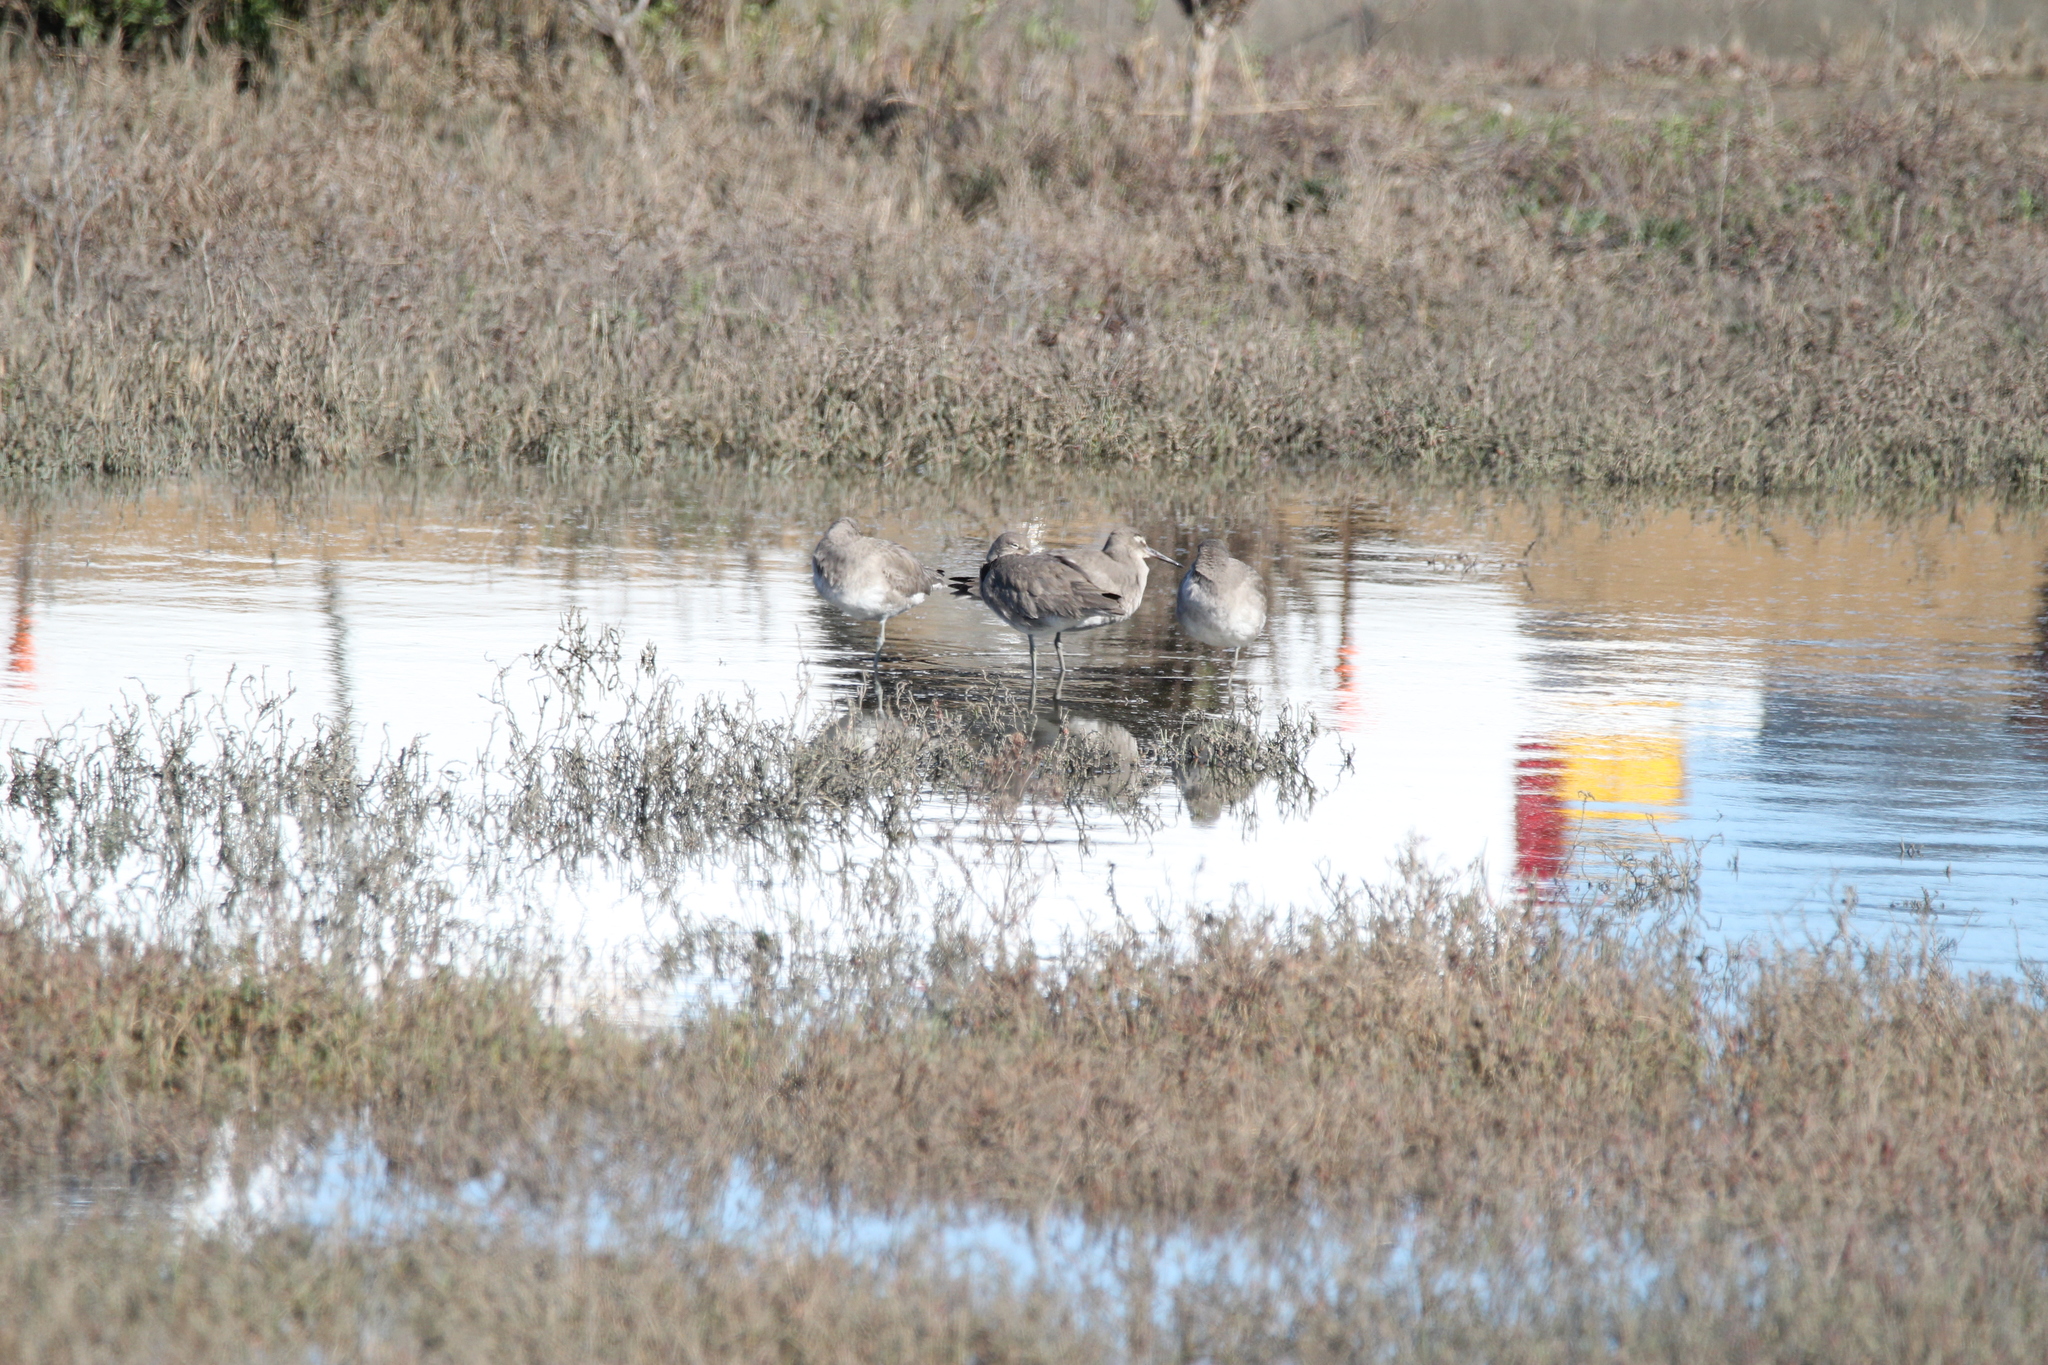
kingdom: Animalia
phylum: Chordata
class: Aves
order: Charadriiformes
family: Scolopacidae
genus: Tringa
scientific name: Tringa semipalmata
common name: Willet
